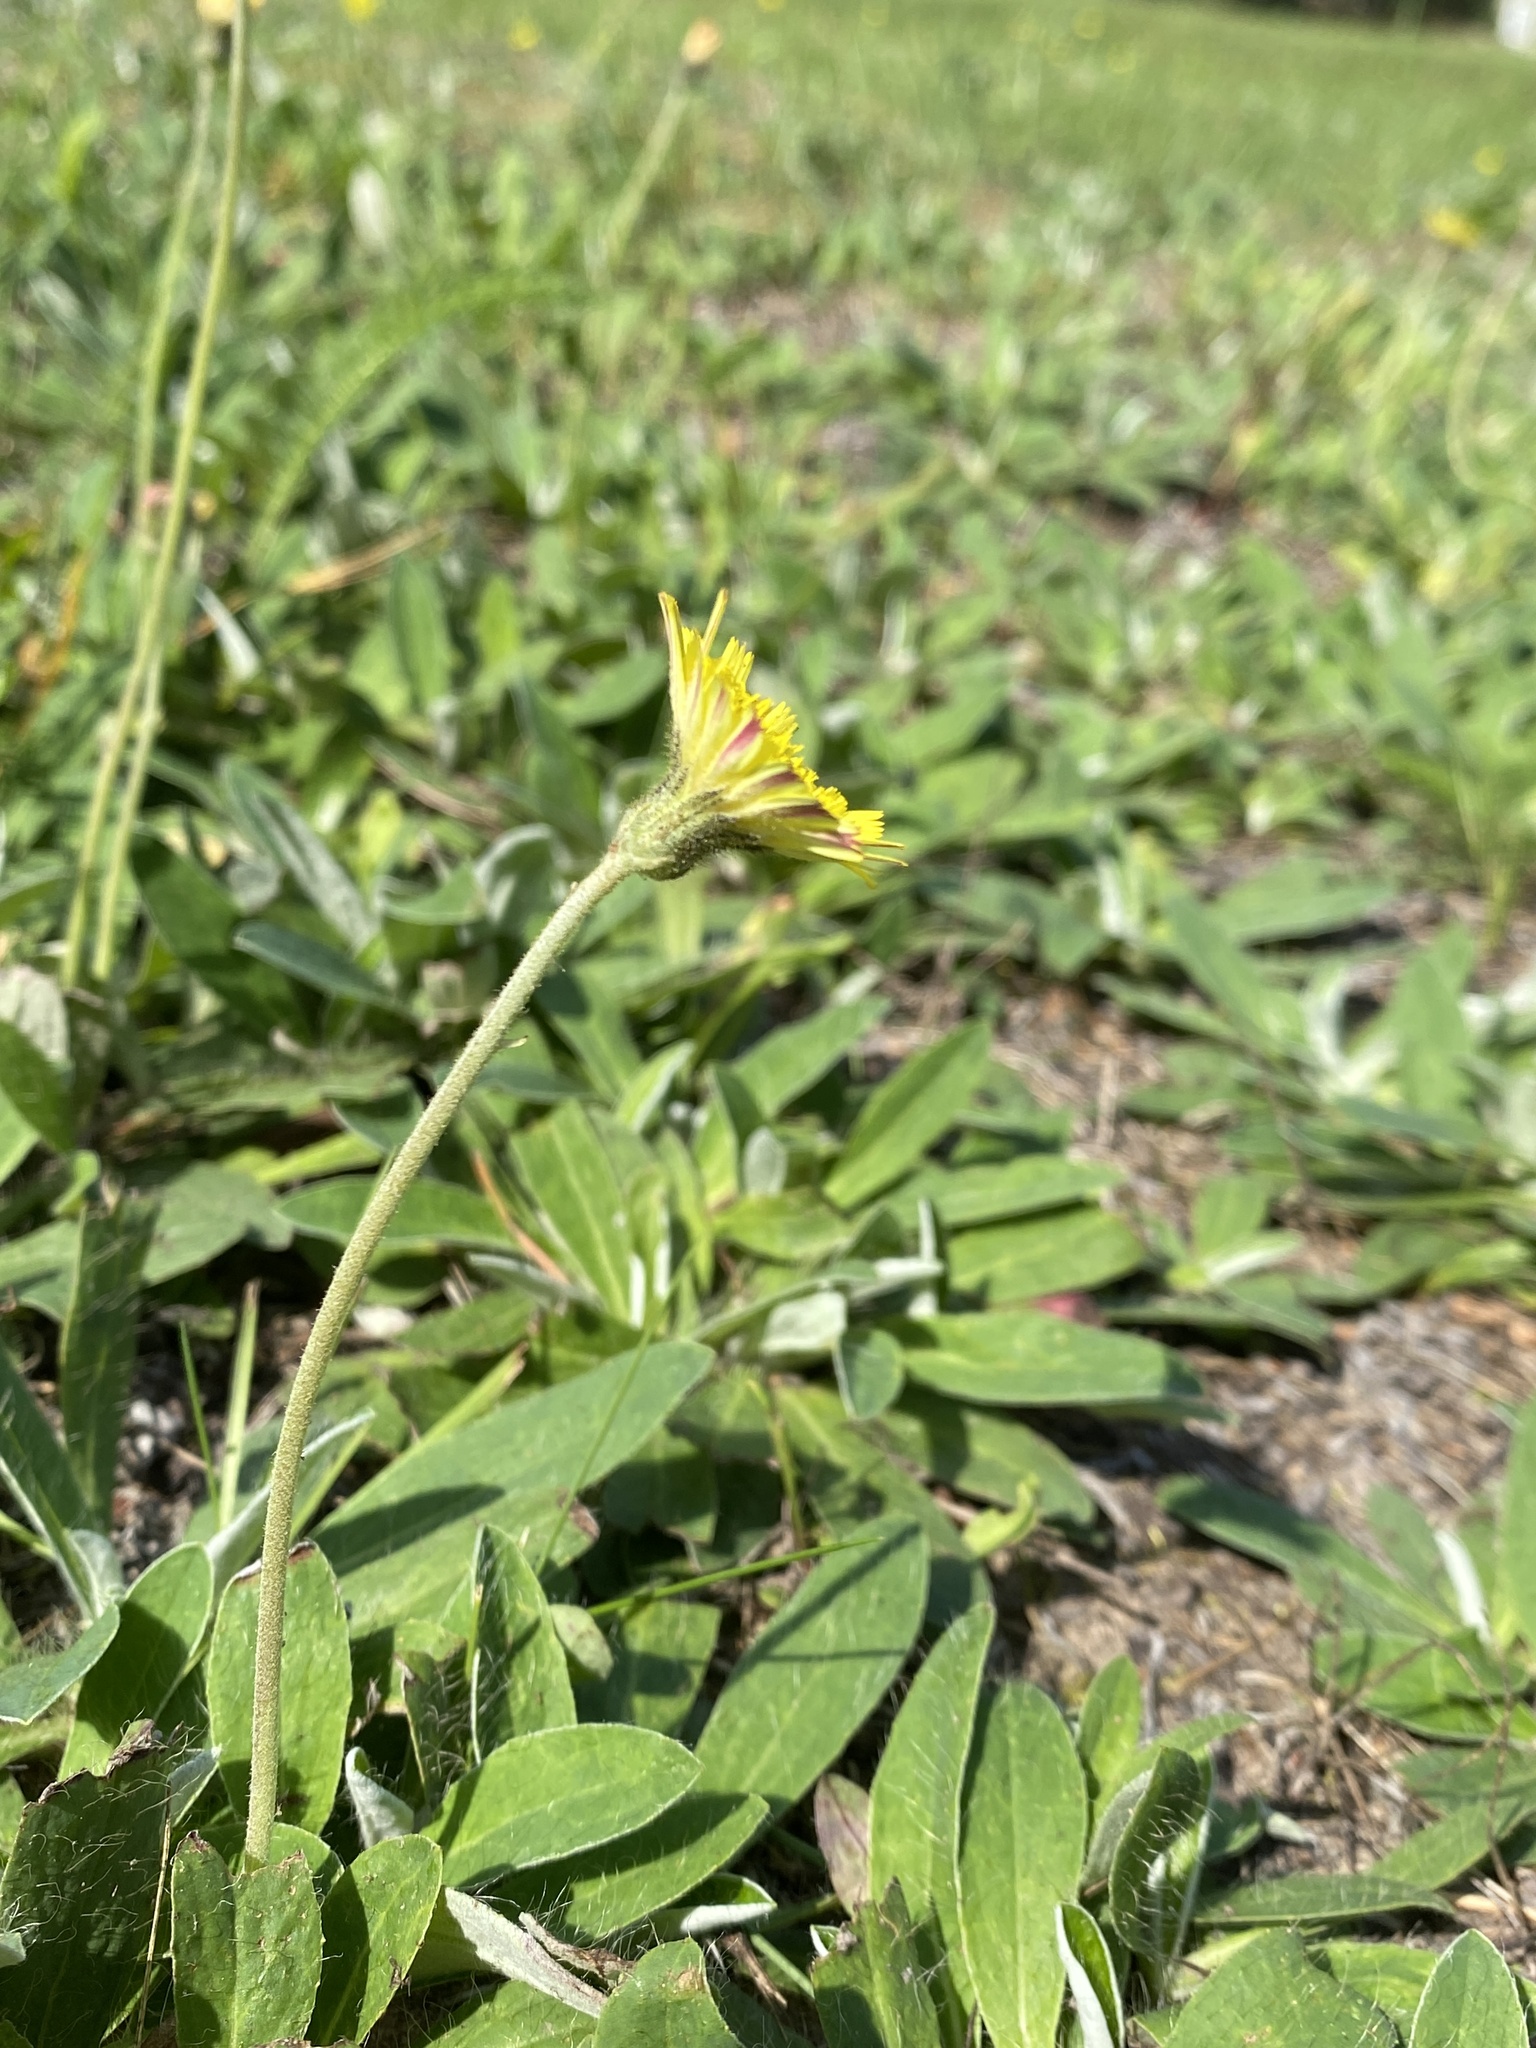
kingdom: Plantae
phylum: Tracheophyta
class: Magnoliopsida
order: Asterales
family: Asteraceae
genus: Pilosella
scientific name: Pilosella officinarum
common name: Mouse-ear hawkweed
